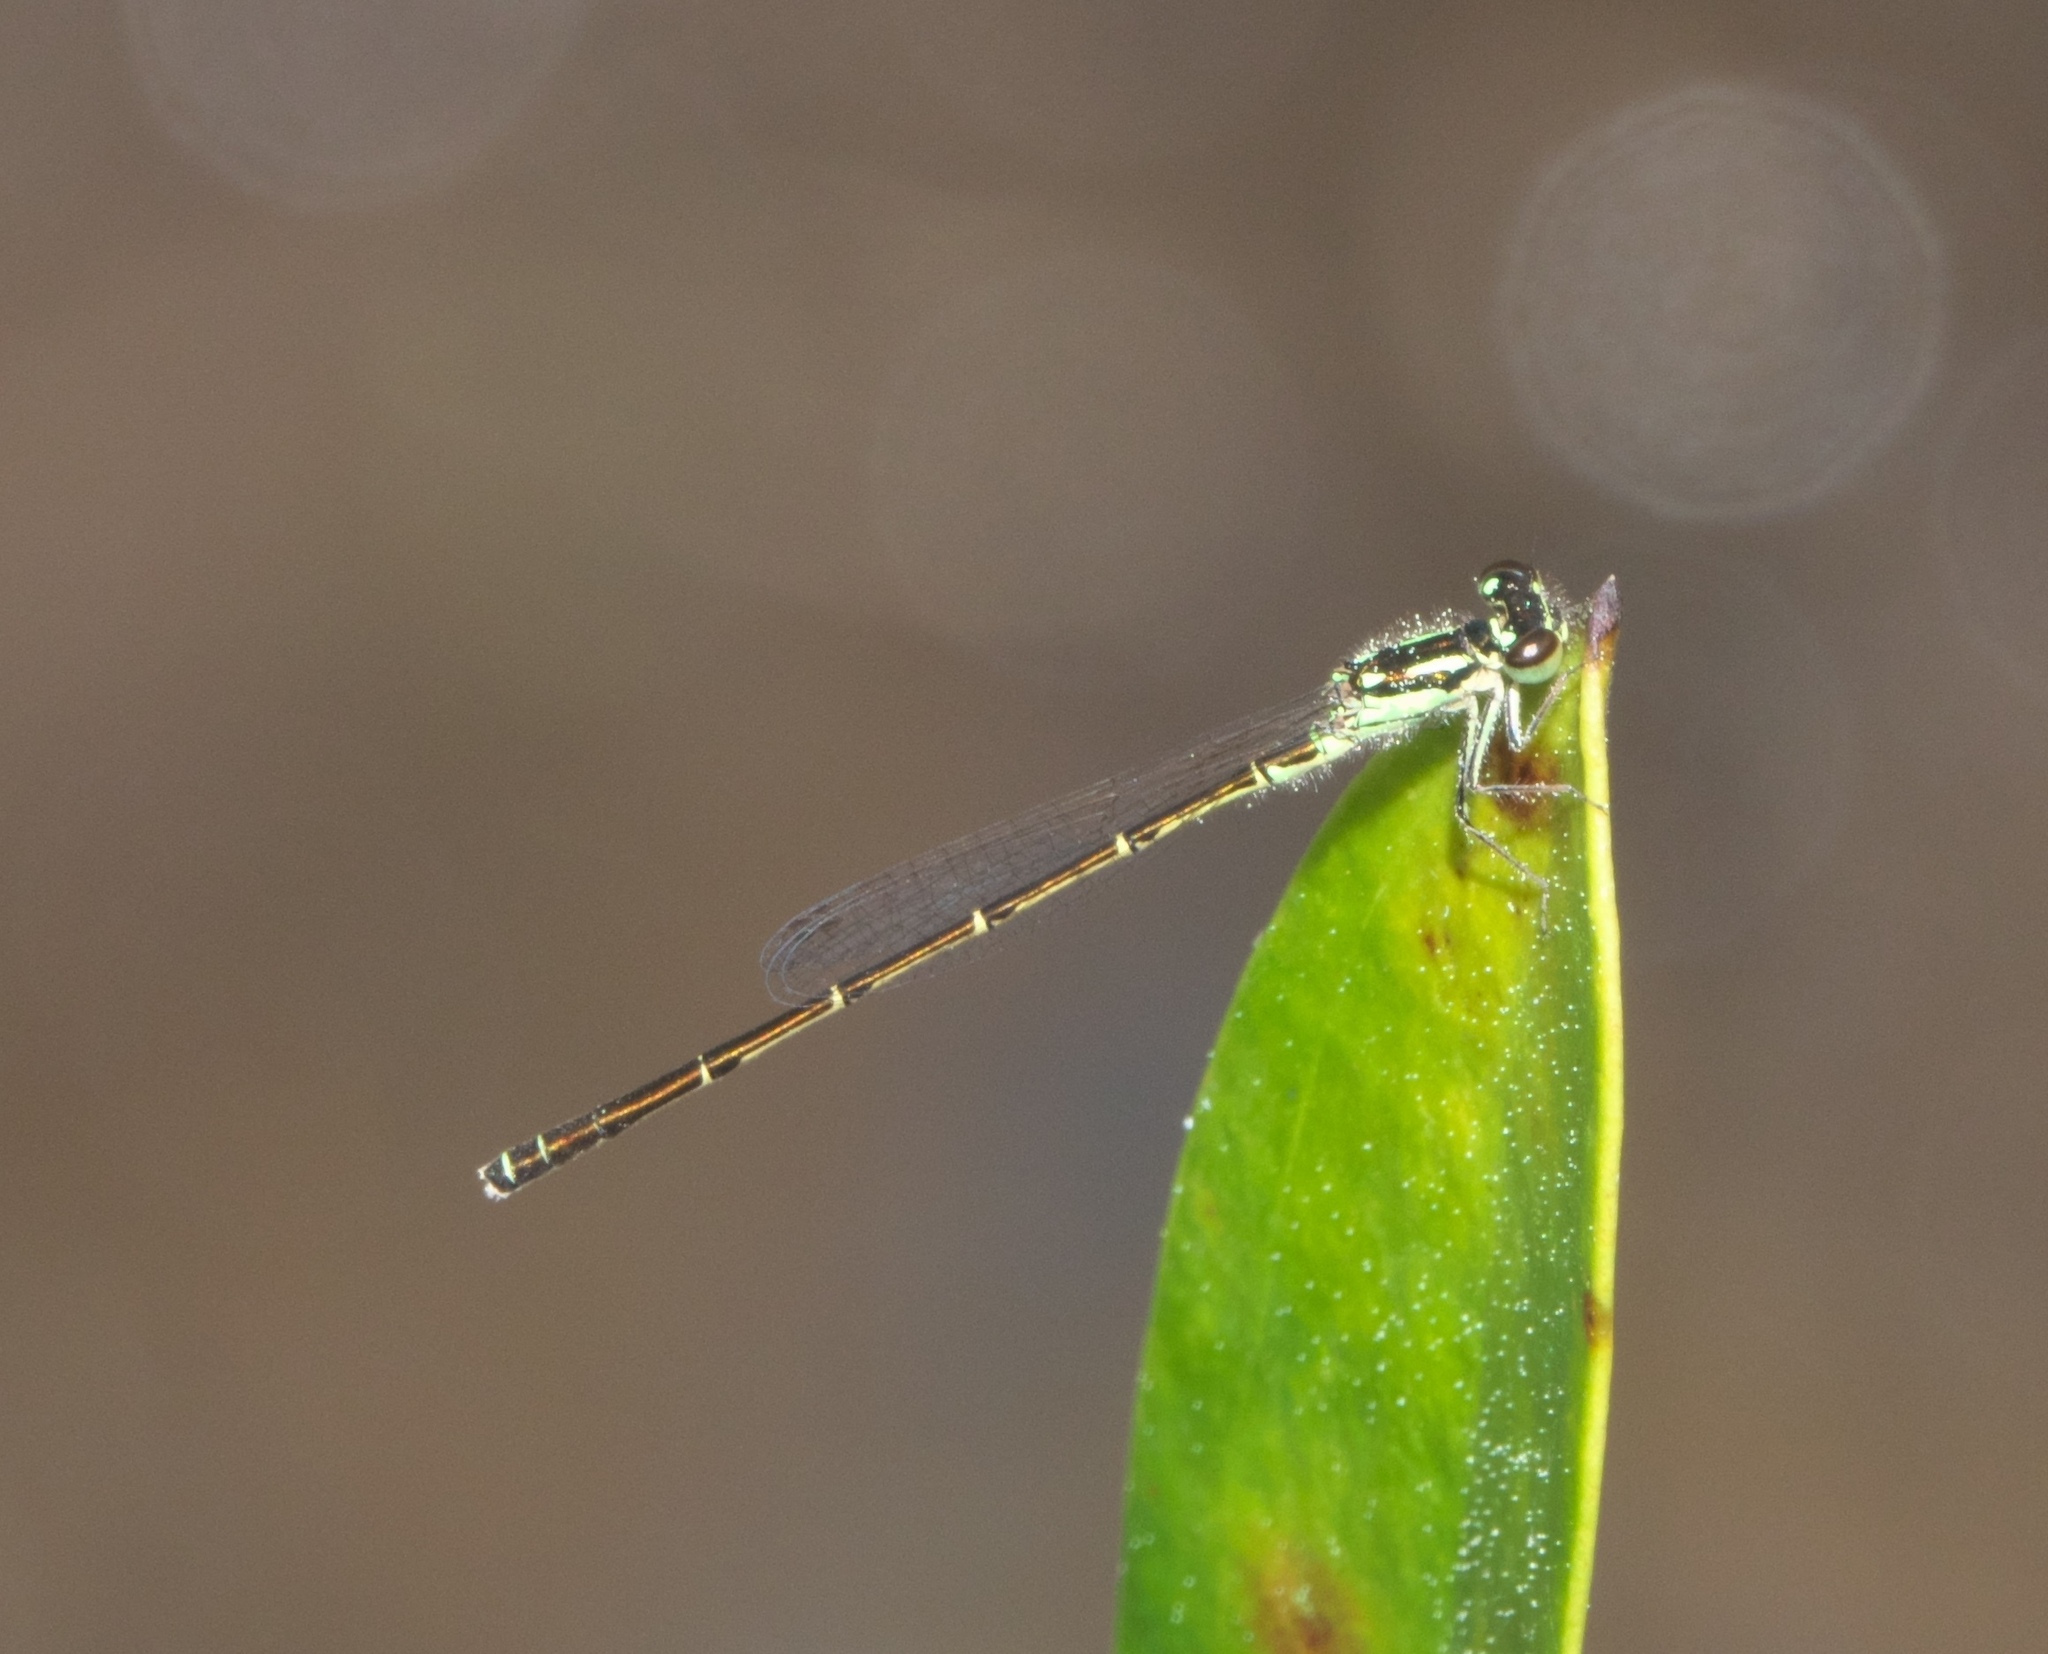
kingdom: Animalia
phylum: Arthropoda
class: Insecta
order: Odonata
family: Coenagrionidae
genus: Ischnura
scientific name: Ischnura posita
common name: Fragile forktail
